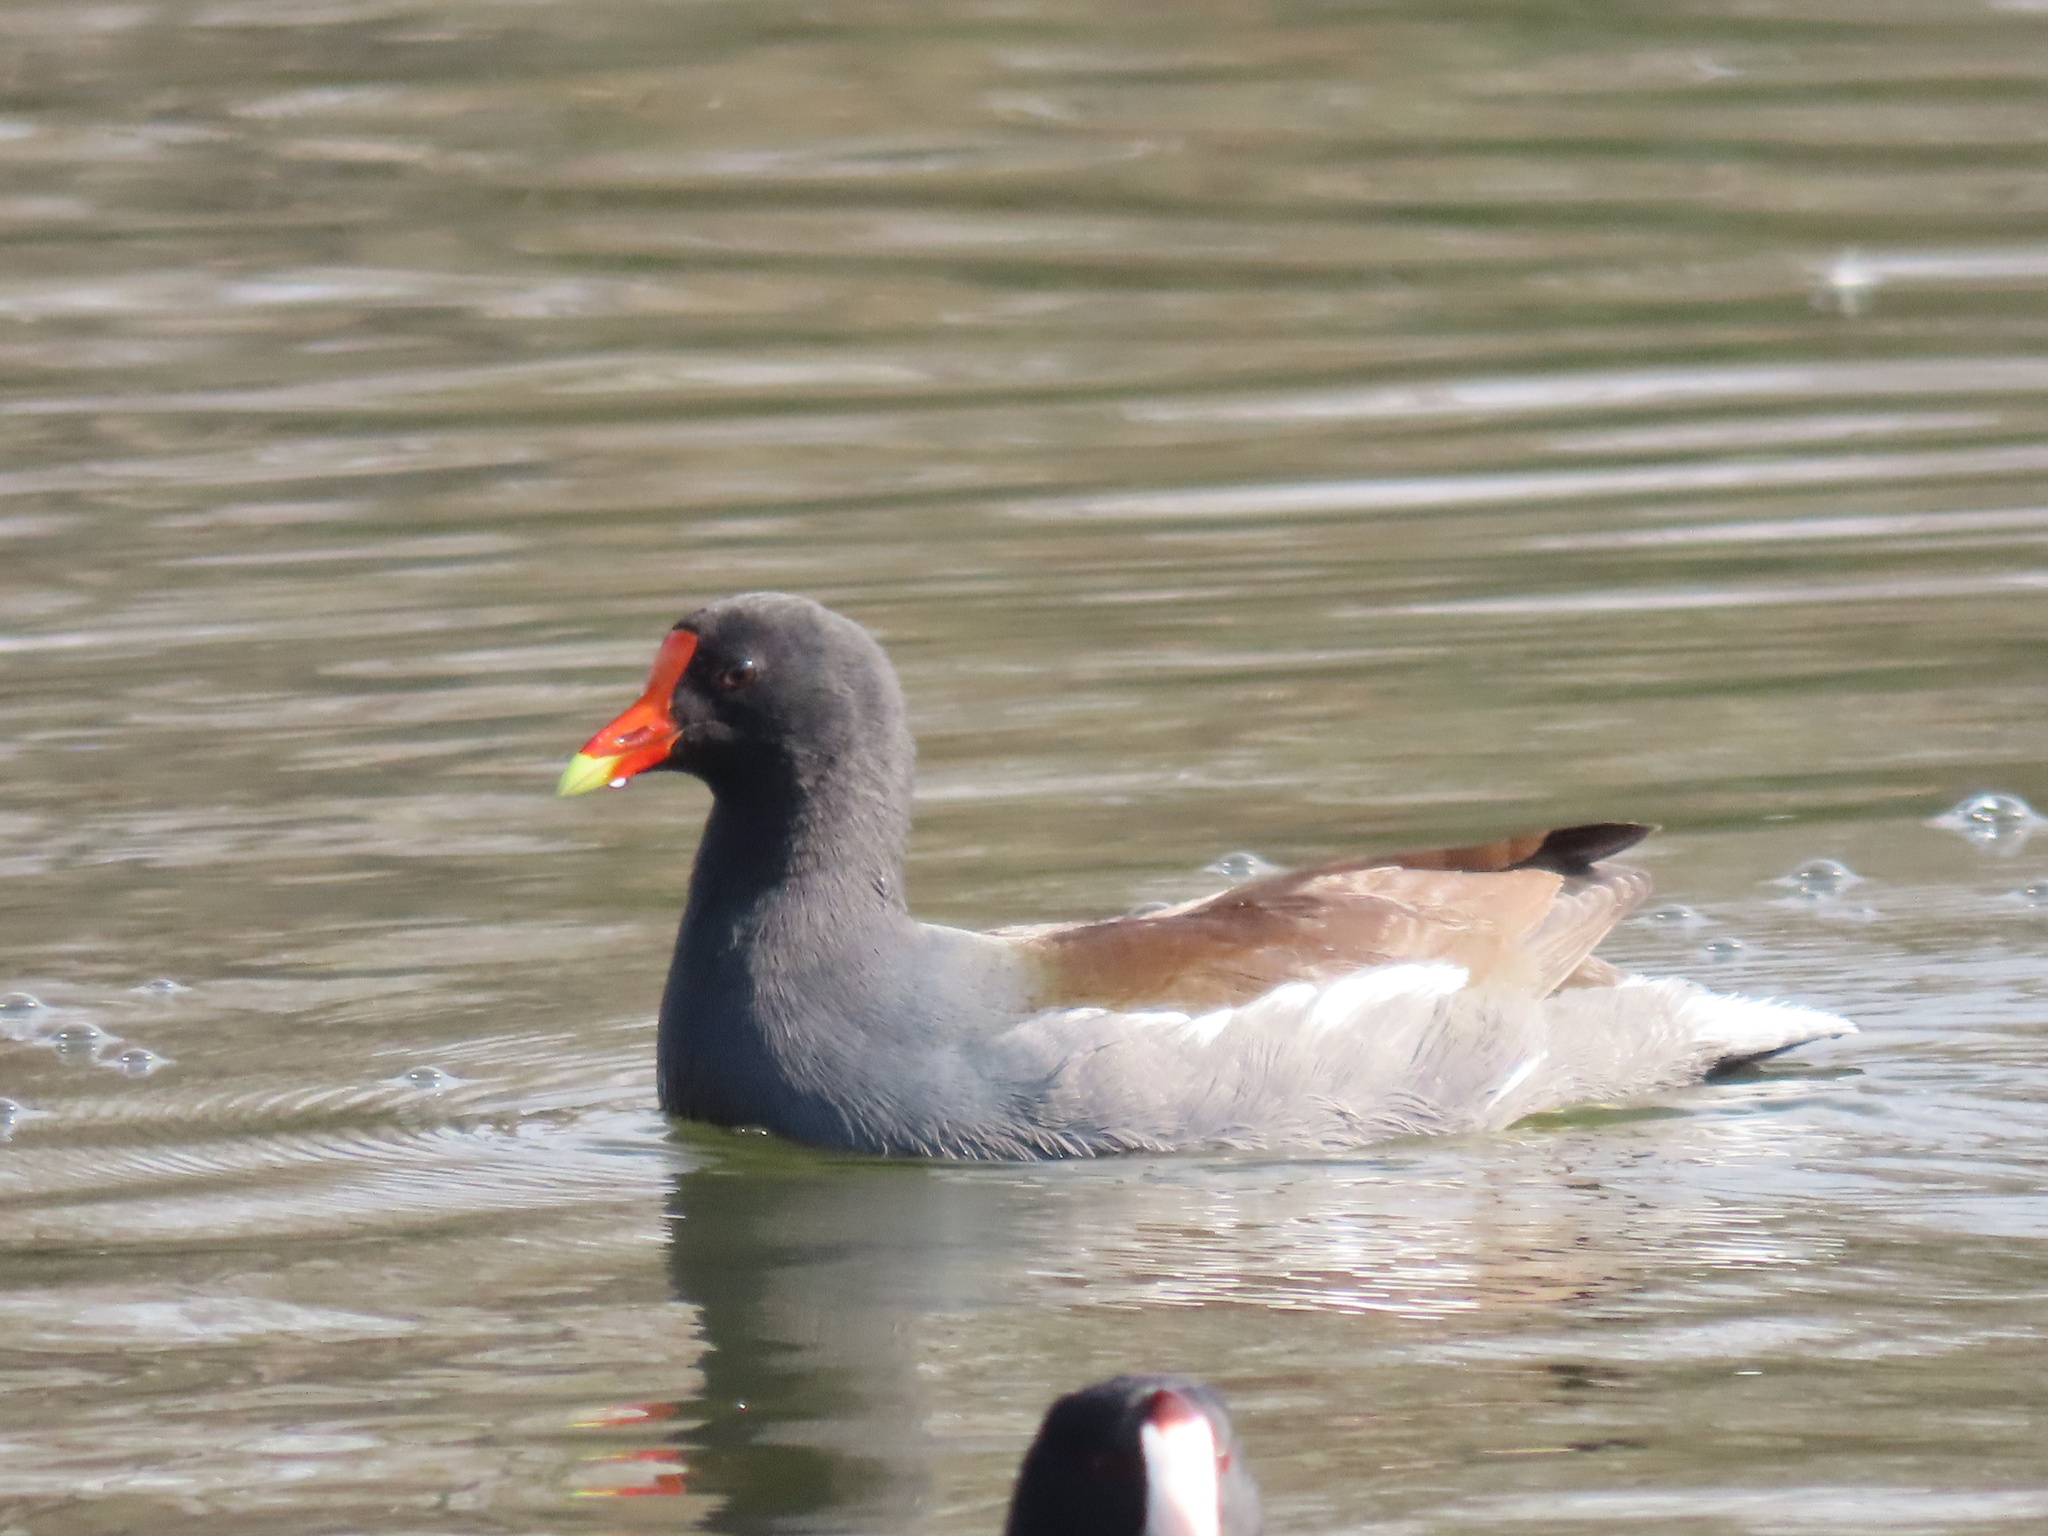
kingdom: Animalia
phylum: Chordata
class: Aves
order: Gruiformes
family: Rallidae
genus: Gallinula
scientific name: Gallinula chloropus
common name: Common moorhen
